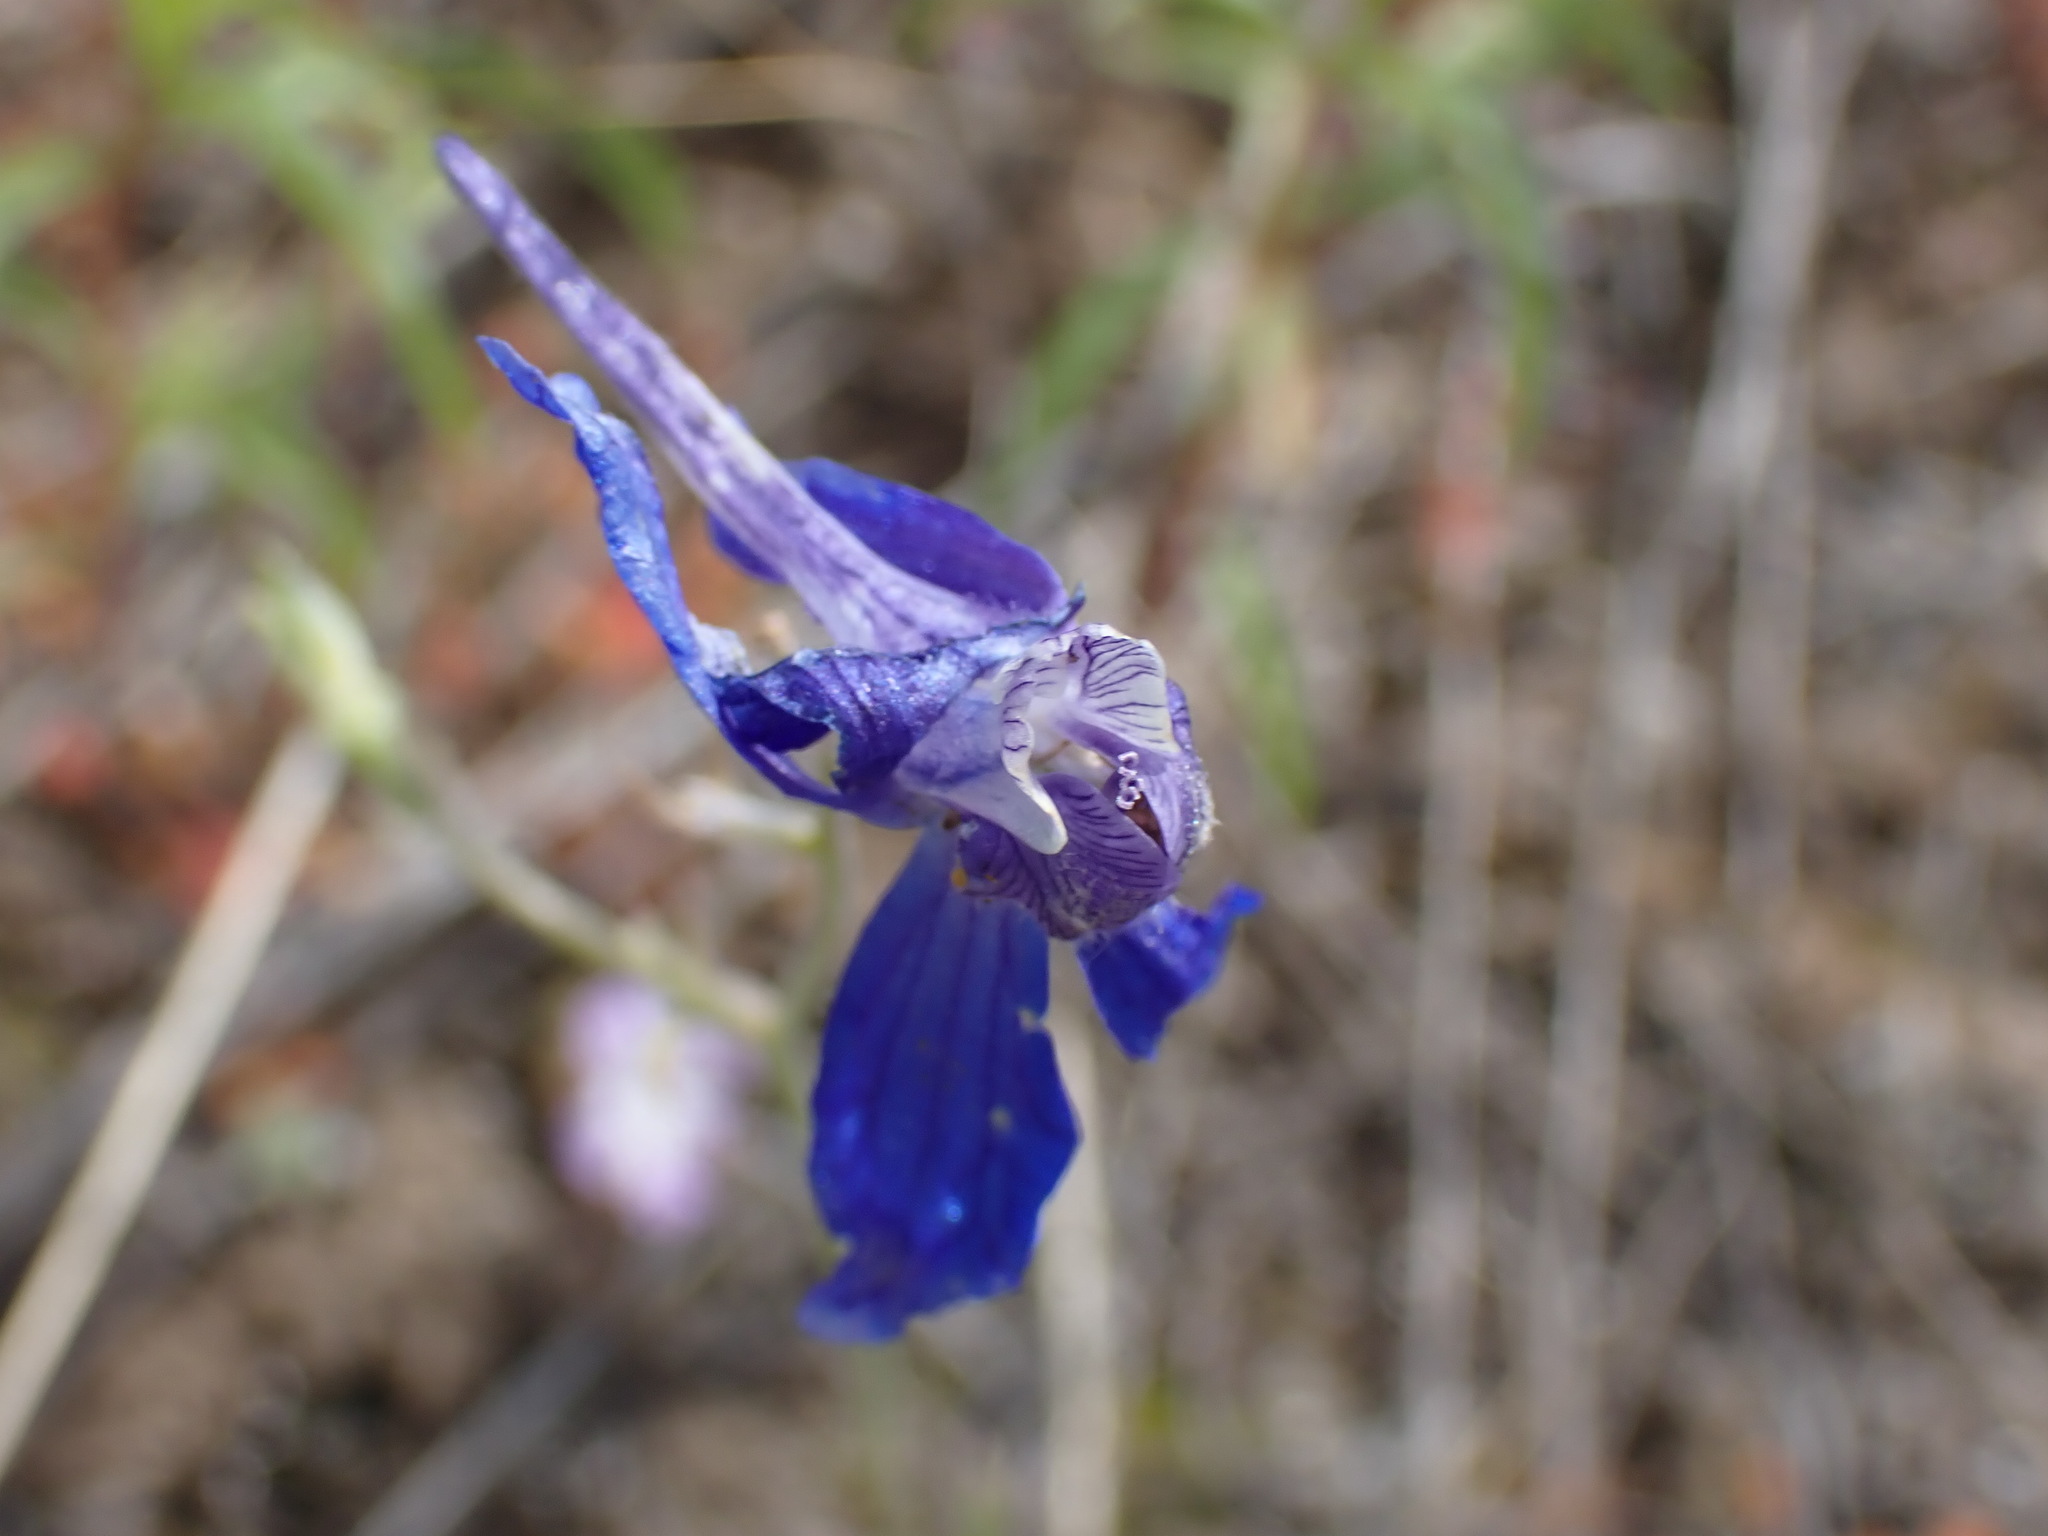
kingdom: Plantae
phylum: Tracheophyta
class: Magnoliopsida
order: Ranunculales
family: Ranunculaceae
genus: Delphinium
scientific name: Delphinium nuttallianum
